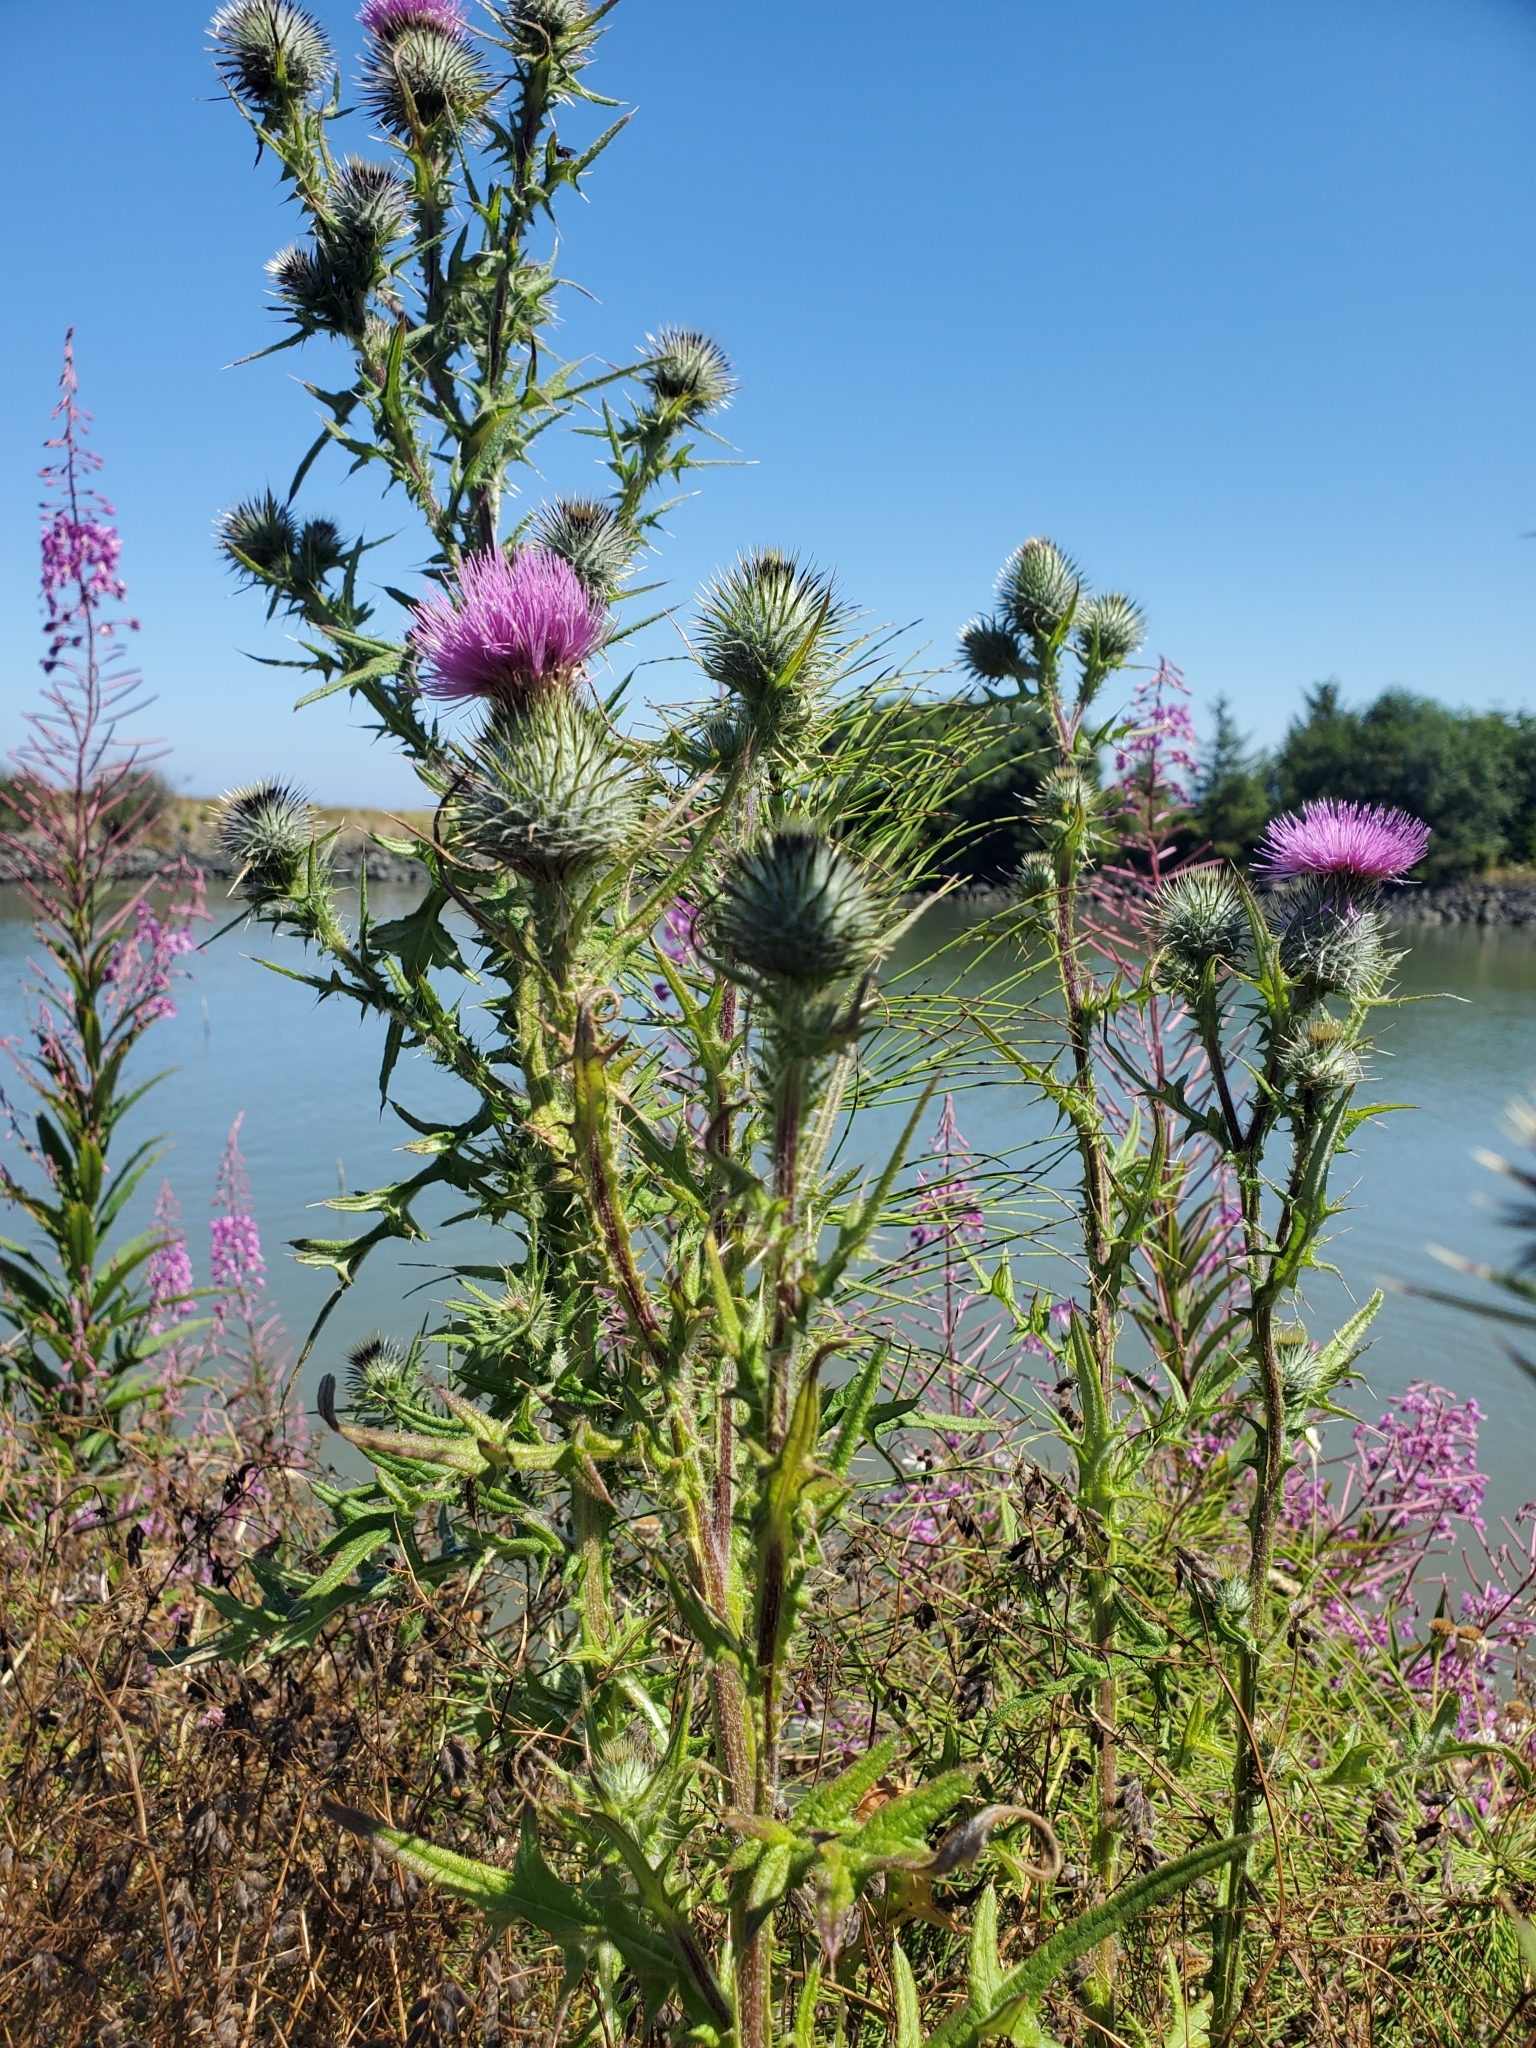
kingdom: Plantae
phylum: Tracheophyta
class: Magnoliopsida
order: Asterales
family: Asteraceae
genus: Cirsium
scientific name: Cirsium vulgare
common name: Bull thistle
